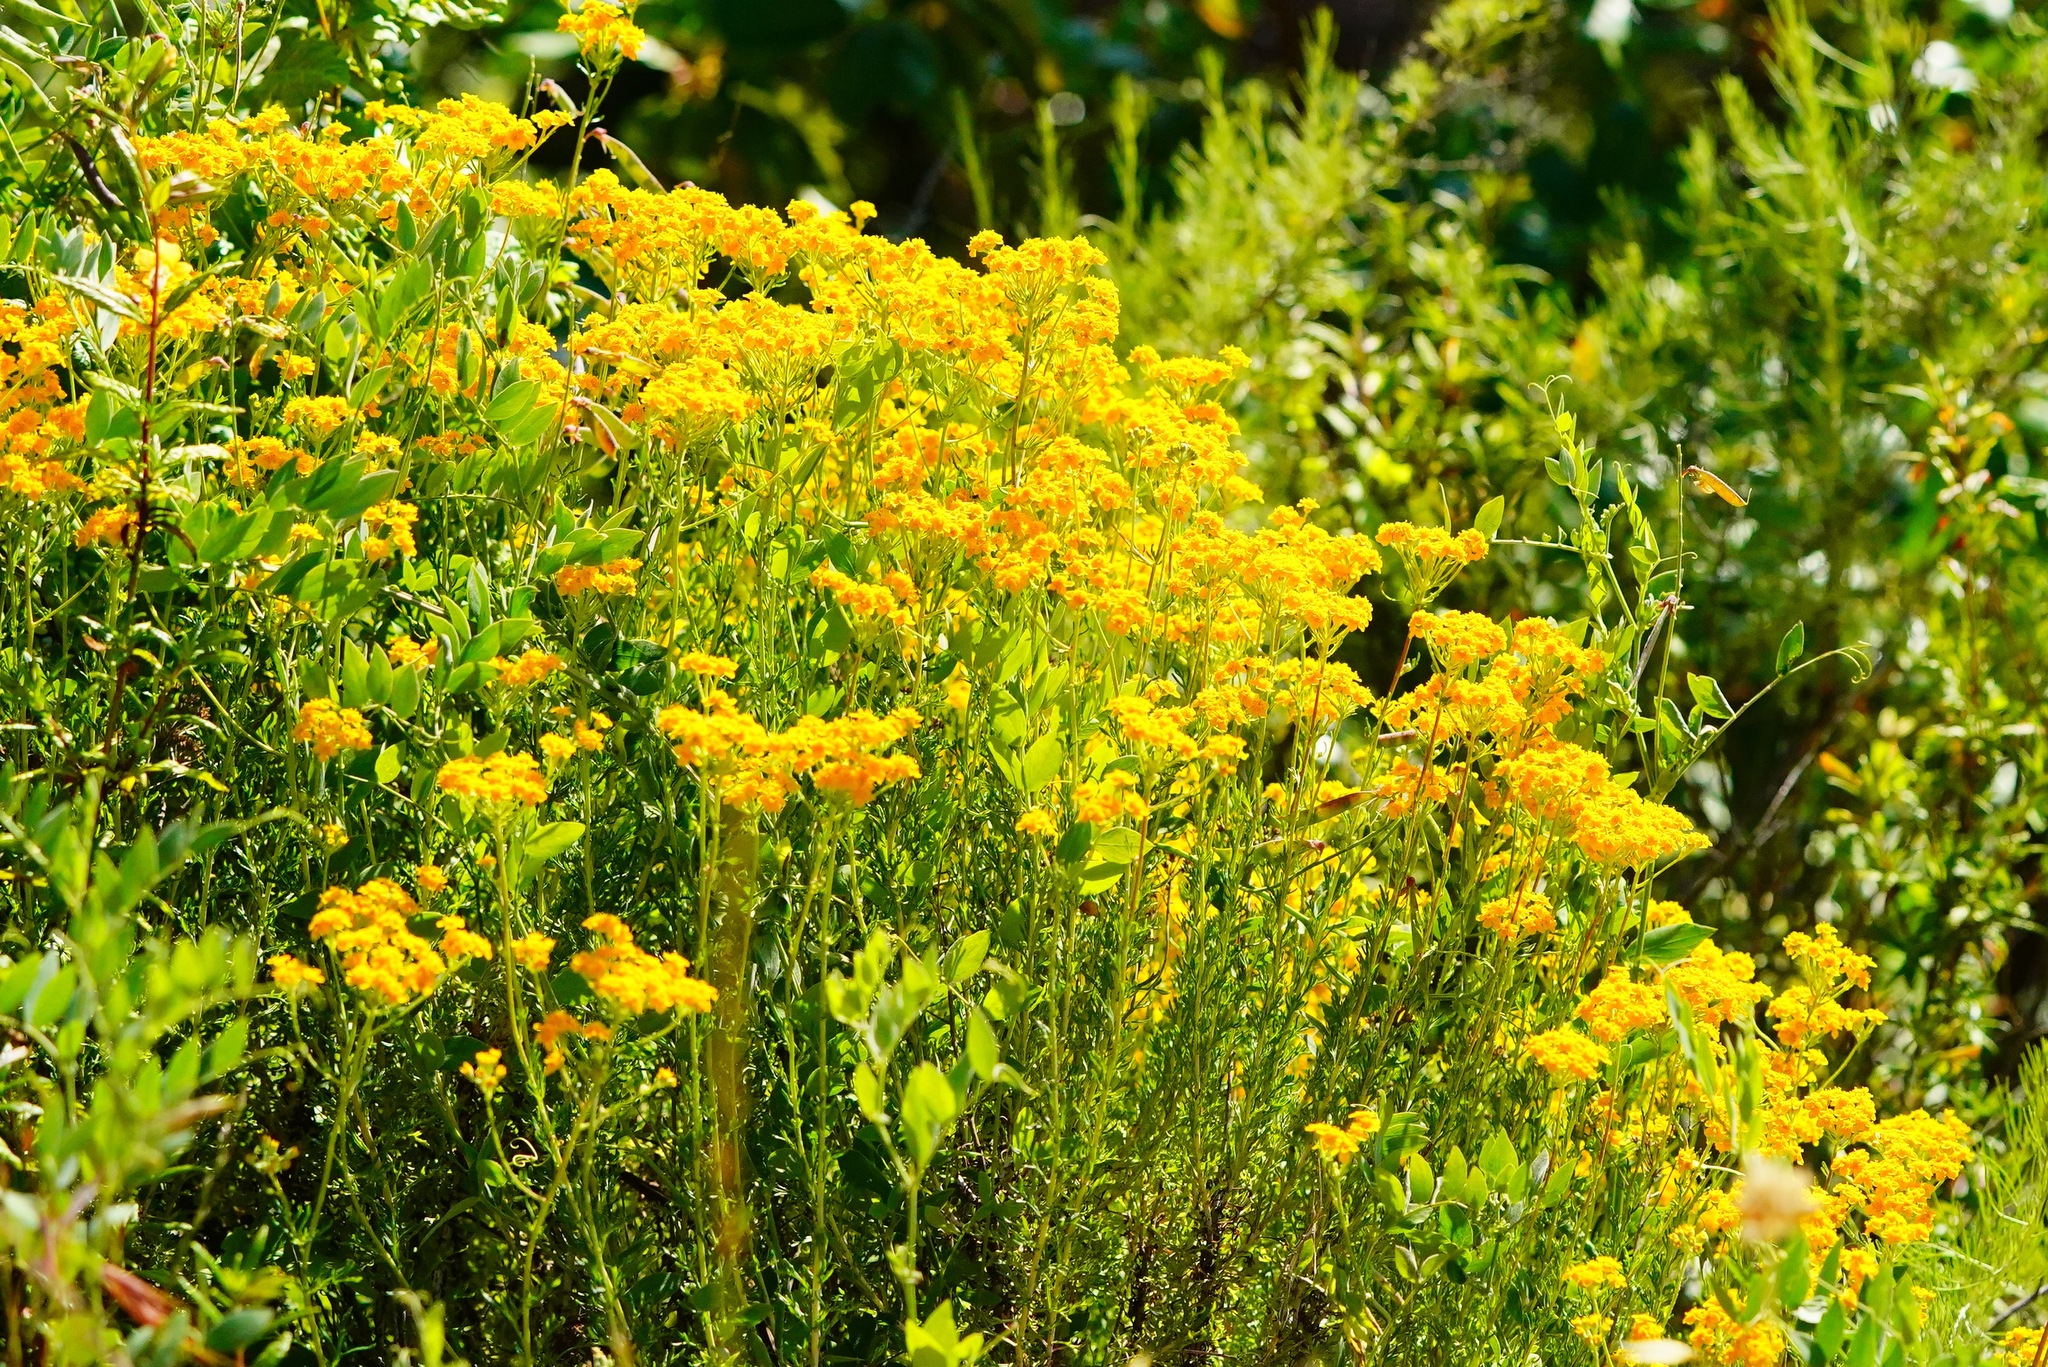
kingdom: Plantae
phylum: Tracheophyta
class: Magnoliopsida
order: Asterales
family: Asteraceae
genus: Eriophyllum
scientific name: Eriophyllum confertiflorum
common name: Golden-yarrow
